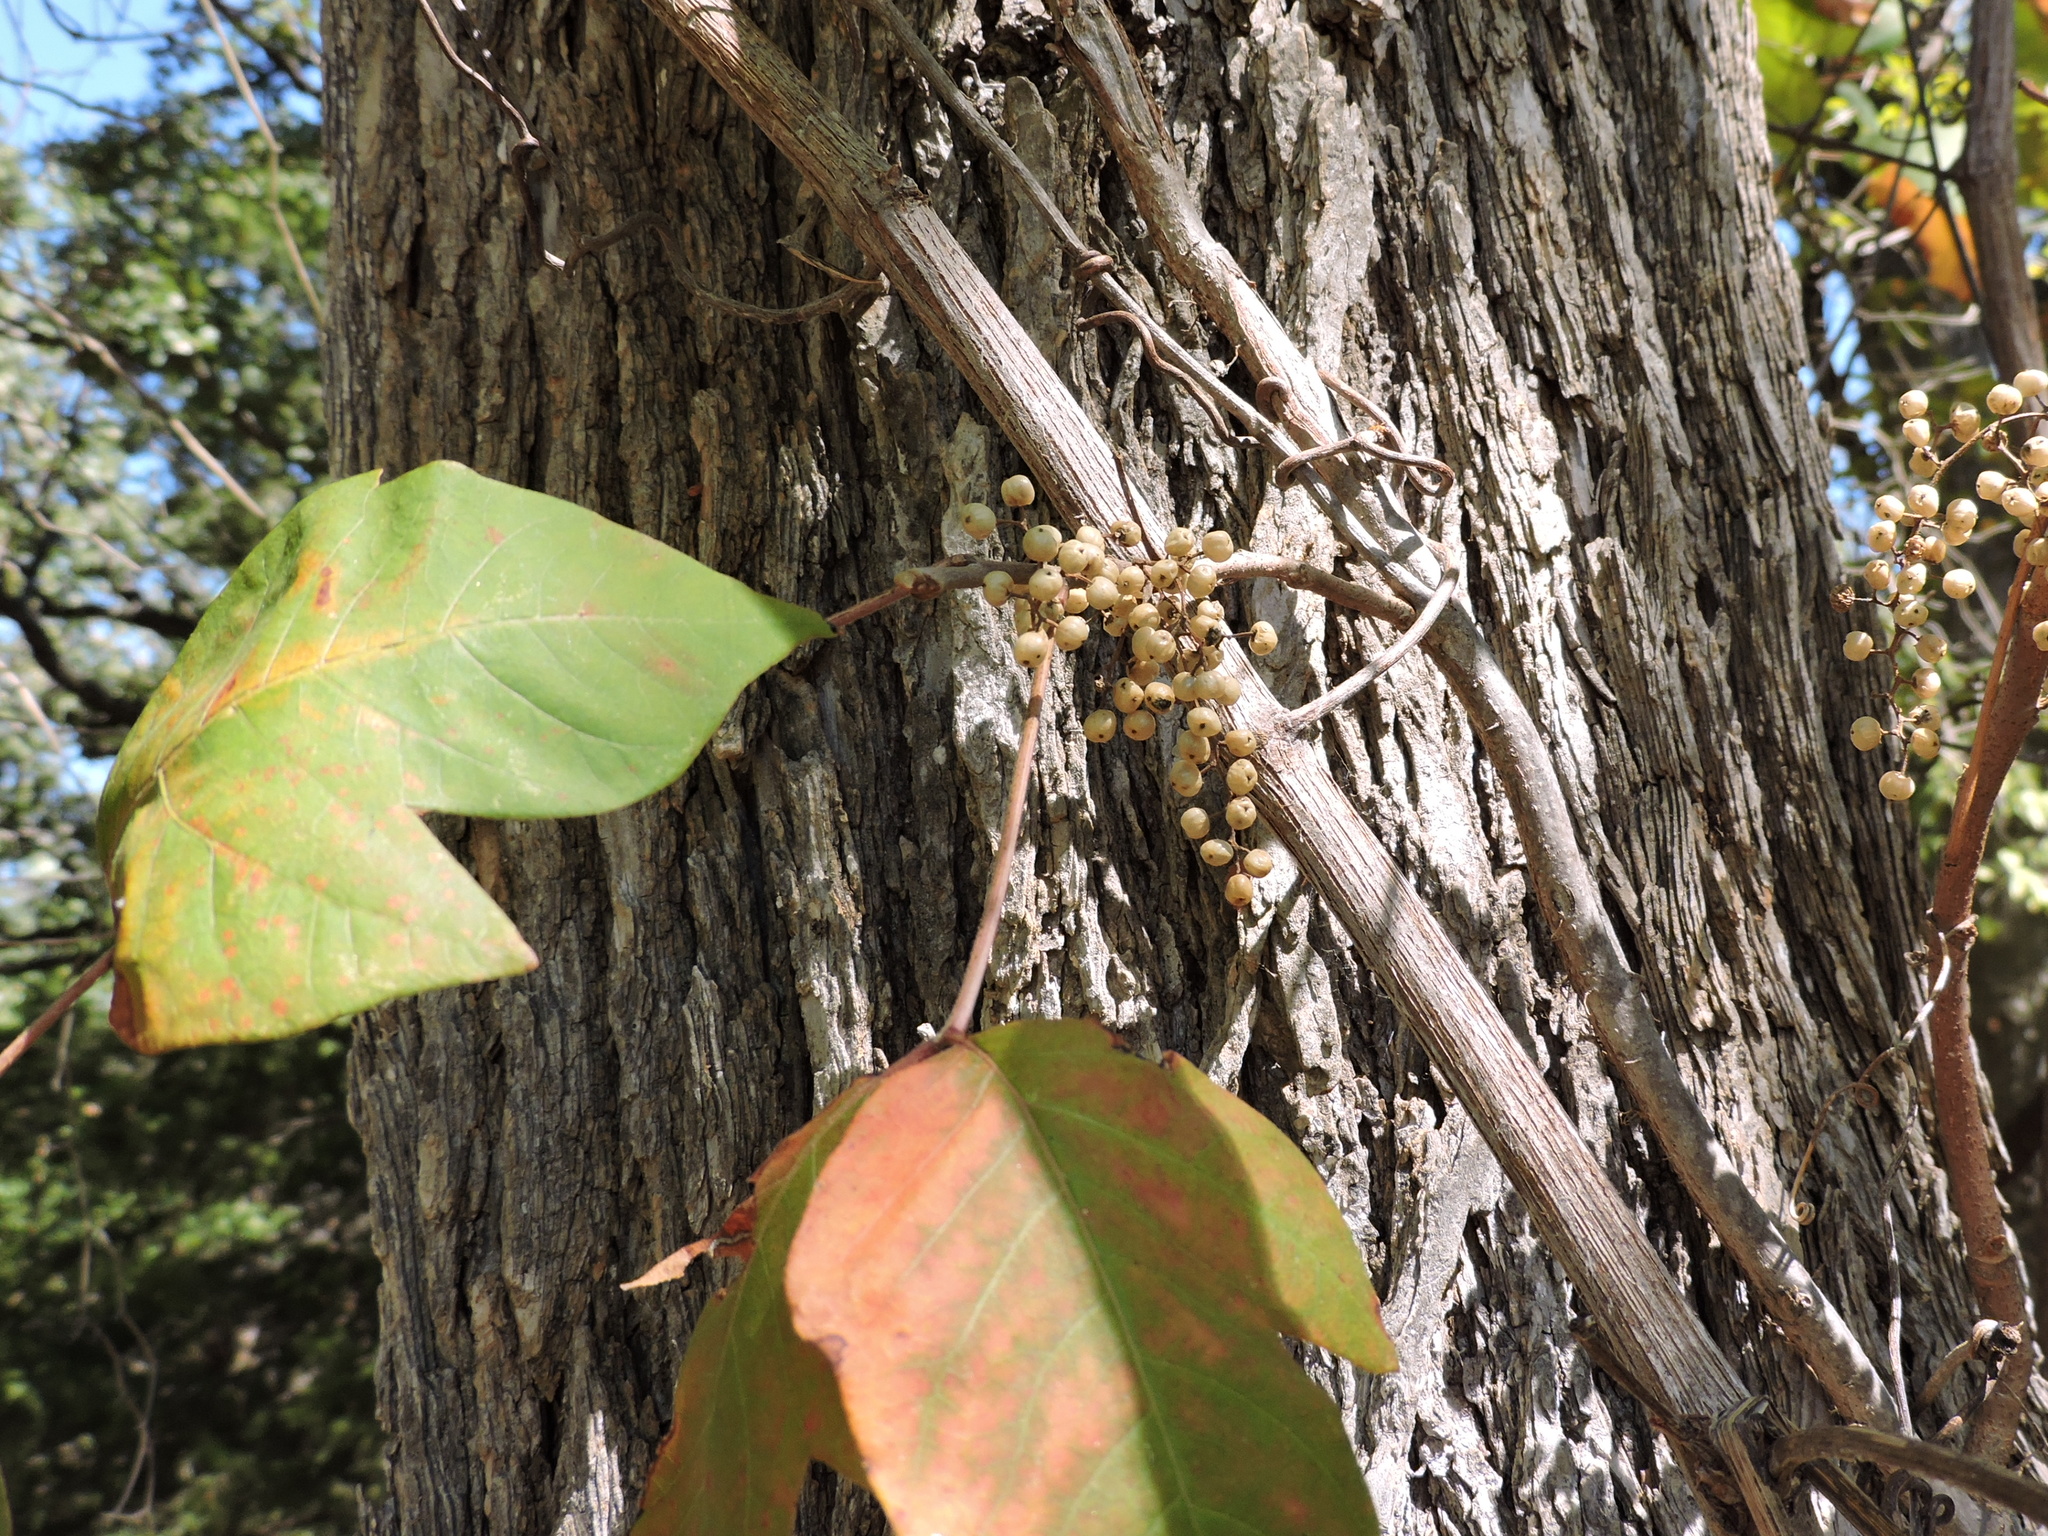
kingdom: Plantae
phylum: Tracheophyta
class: Magnoliopsida
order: Sapindales
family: Anacardiaceae
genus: Toxicodendron
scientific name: Toxicodendron radicans
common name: Poison ivy
